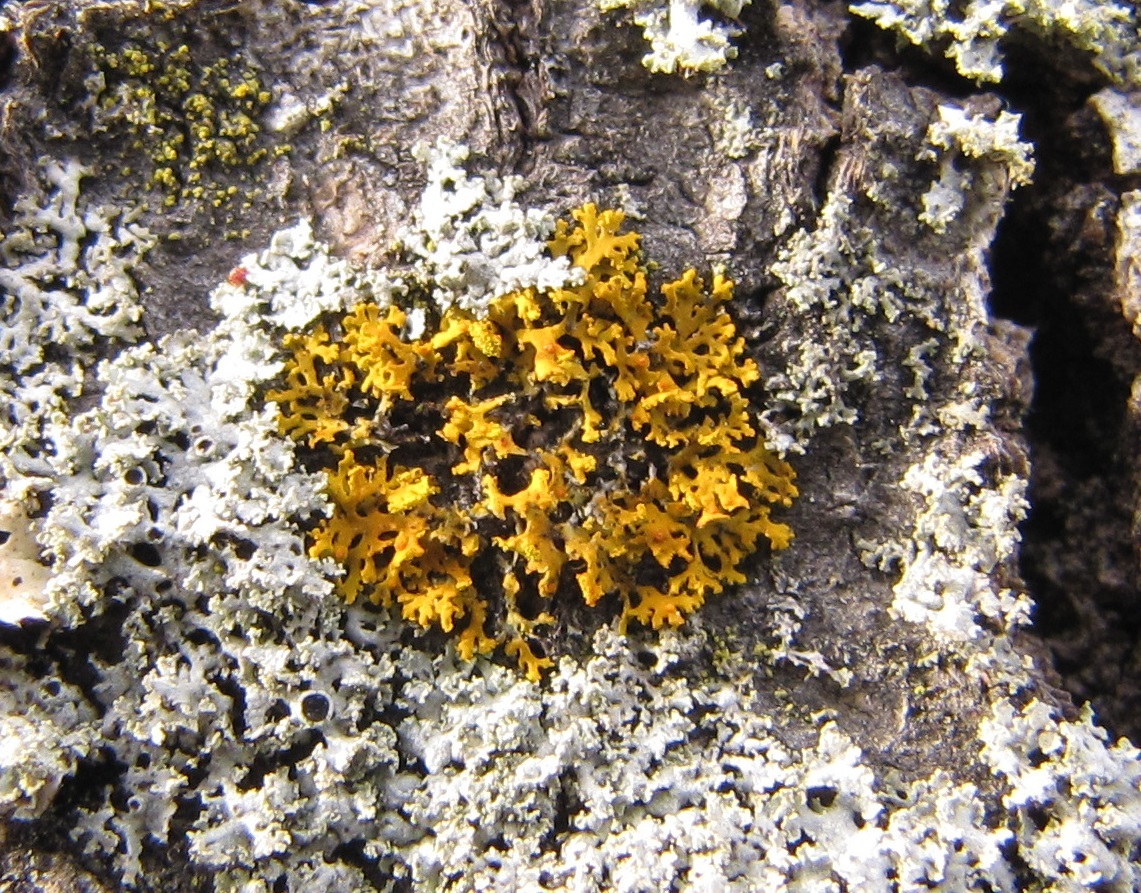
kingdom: Fungi
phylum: Ascomycota
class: Lecanoromycetes
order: Teloschistales
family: Teloschistaceae
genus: Gallowayella
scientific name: Gallowayella weberi
